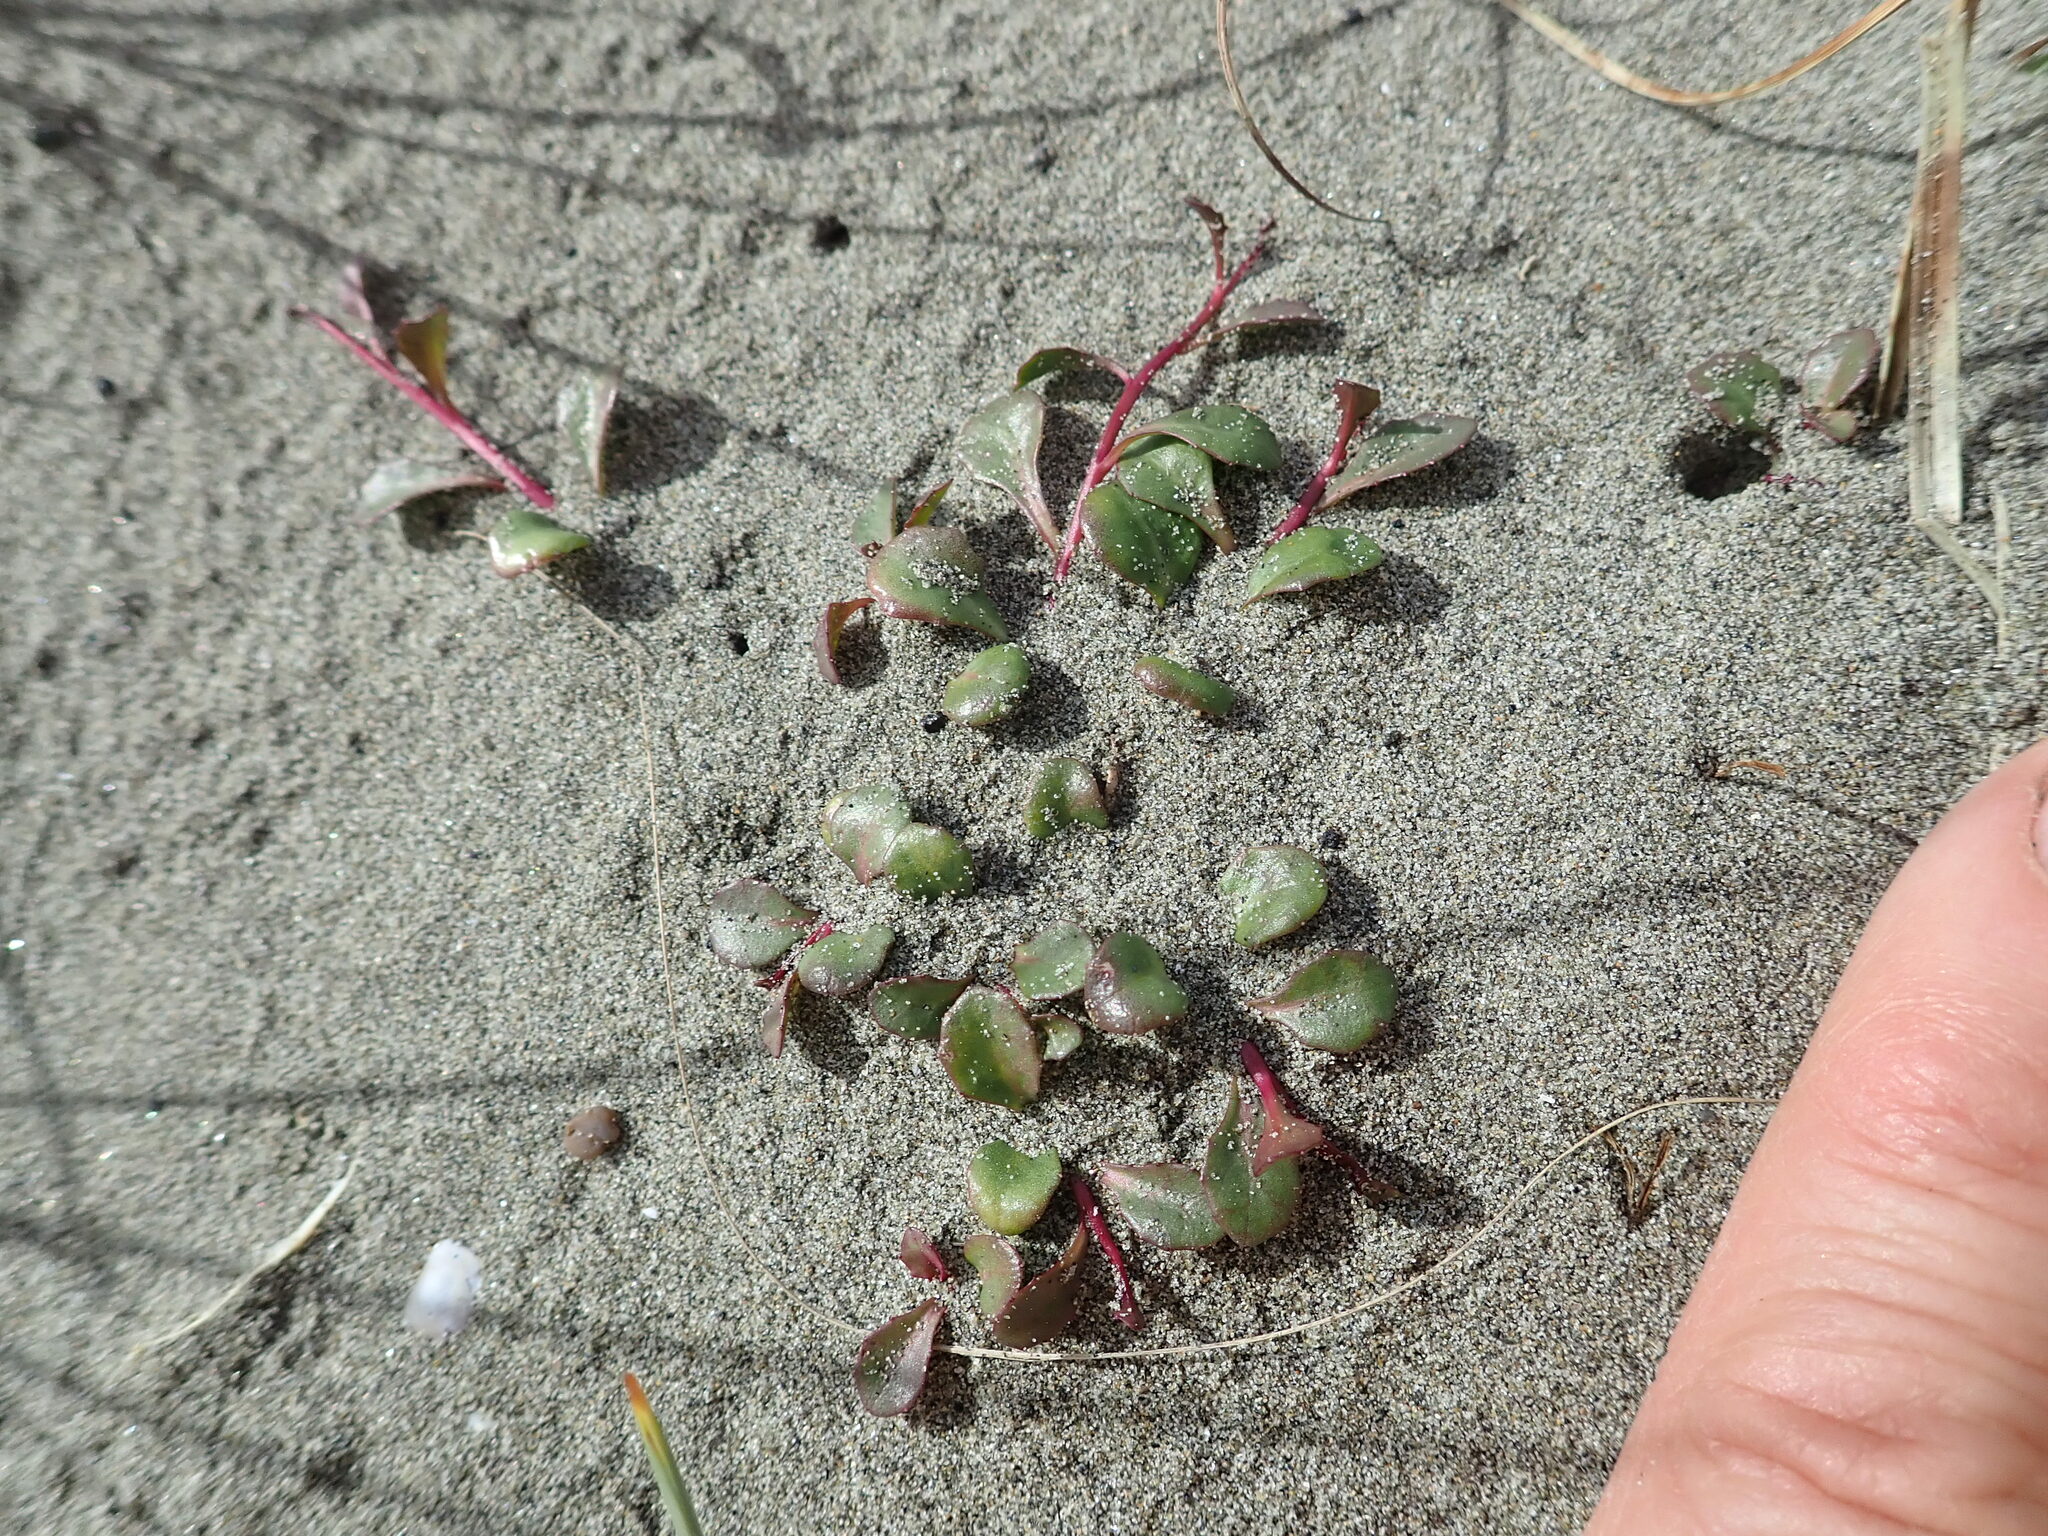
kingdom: Plantae
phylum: Tracheophyta
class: Magnoliopsida
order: Asterales
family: Campanulaceae
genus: Lobelia
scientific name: Lobelia anceps
